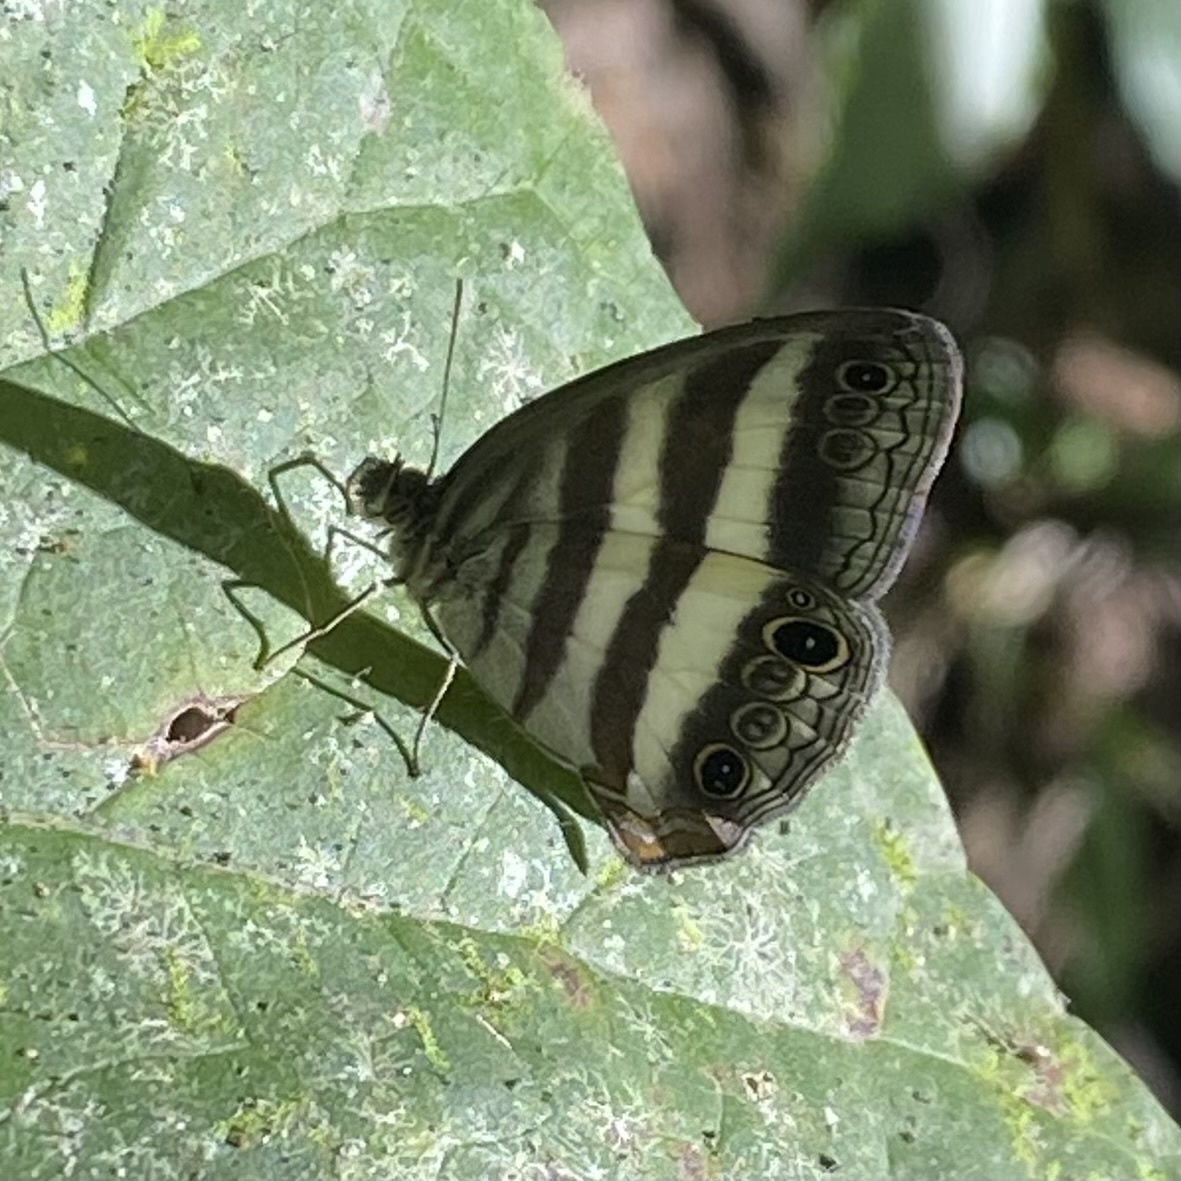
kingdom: Animalia
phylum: Arthropoda
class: Insecta
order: Lepidoptera
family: Nymphalidae
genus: Pareuptychia
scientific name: Pareuptychia hesione
